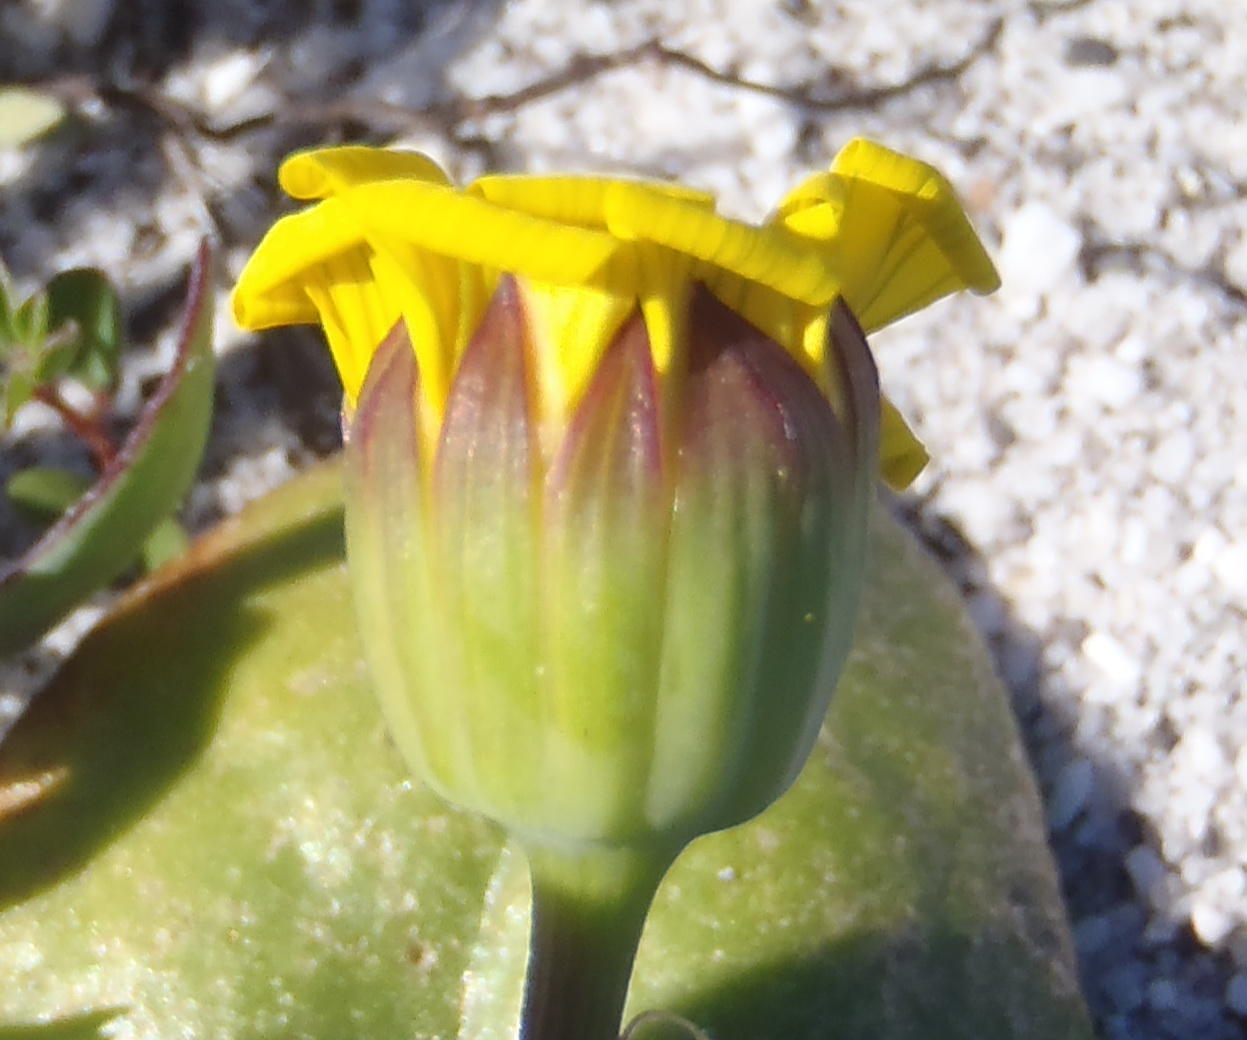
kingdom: Plantae
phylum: Tracheophyta
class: Magnoliopsida
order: Asterales
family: Asteraceae
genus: Othonna
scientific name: Othonna bulbosa
